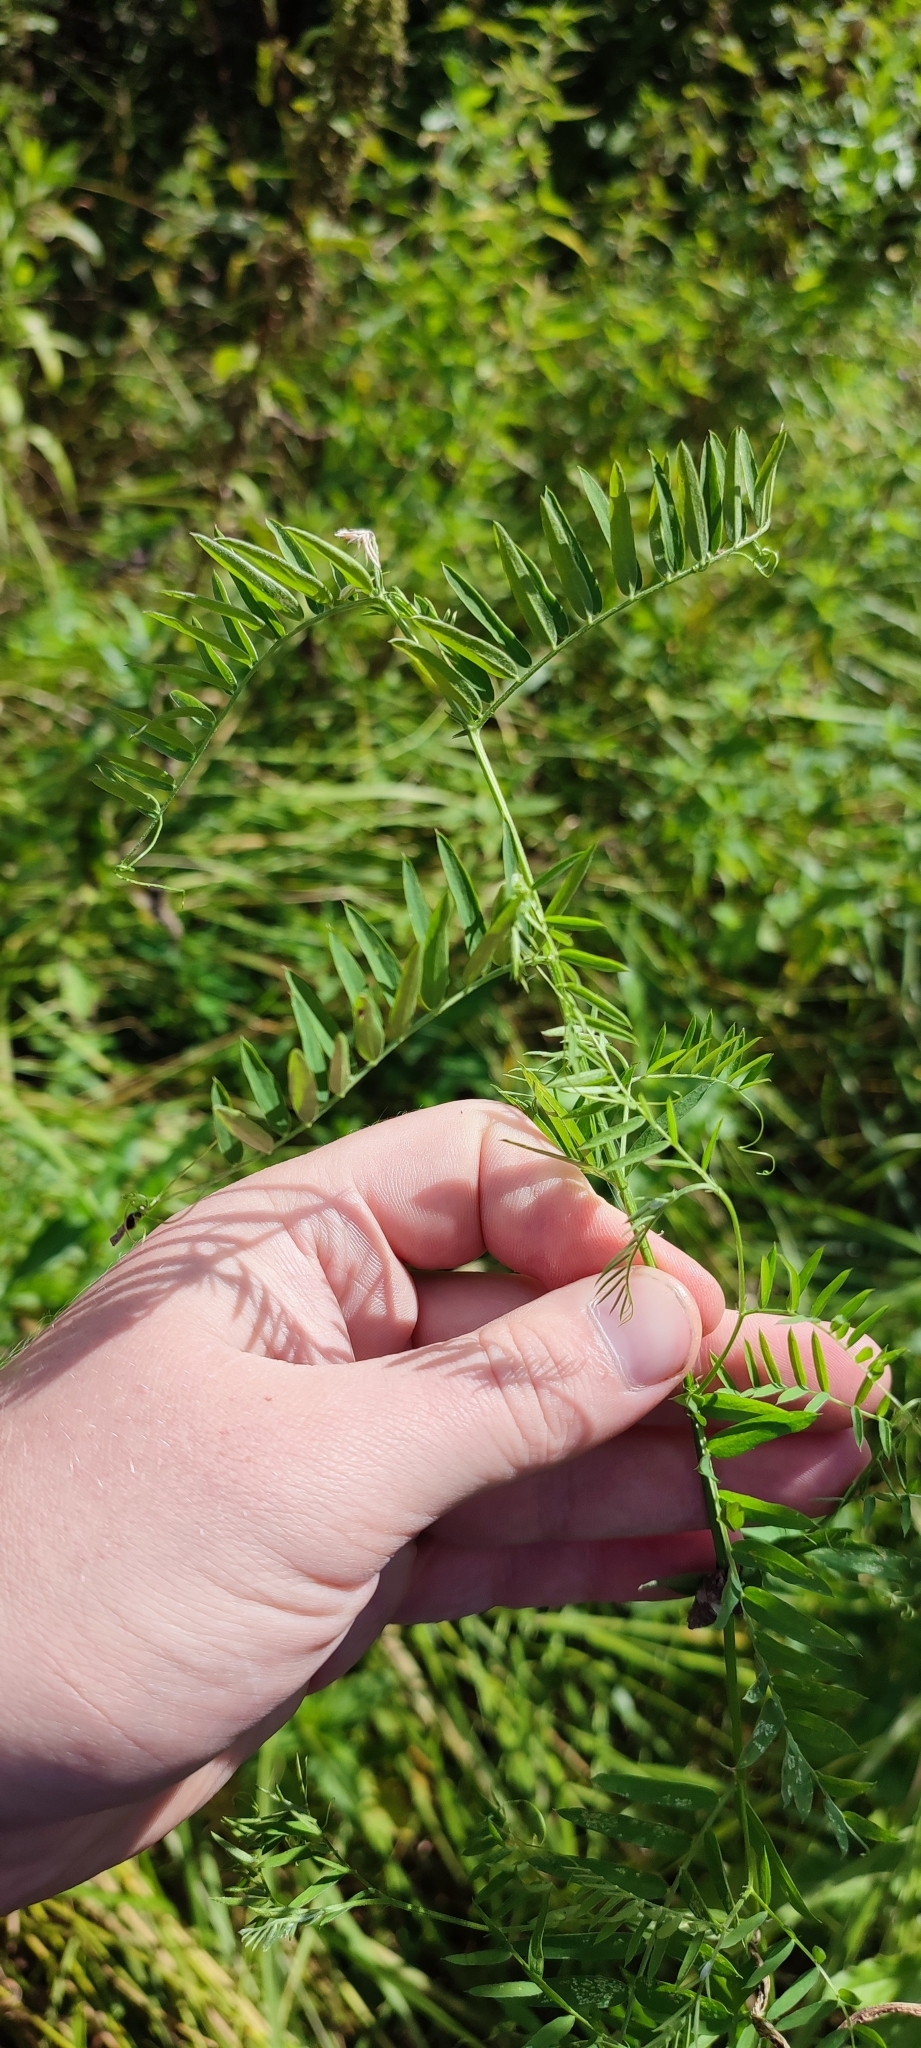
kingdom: Plantae
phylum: Tracheophyta
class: Magnoliopsida
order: Fabales
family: Fabaceae
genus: Vicia
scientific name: Vicia cracca
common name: Bird vetch
